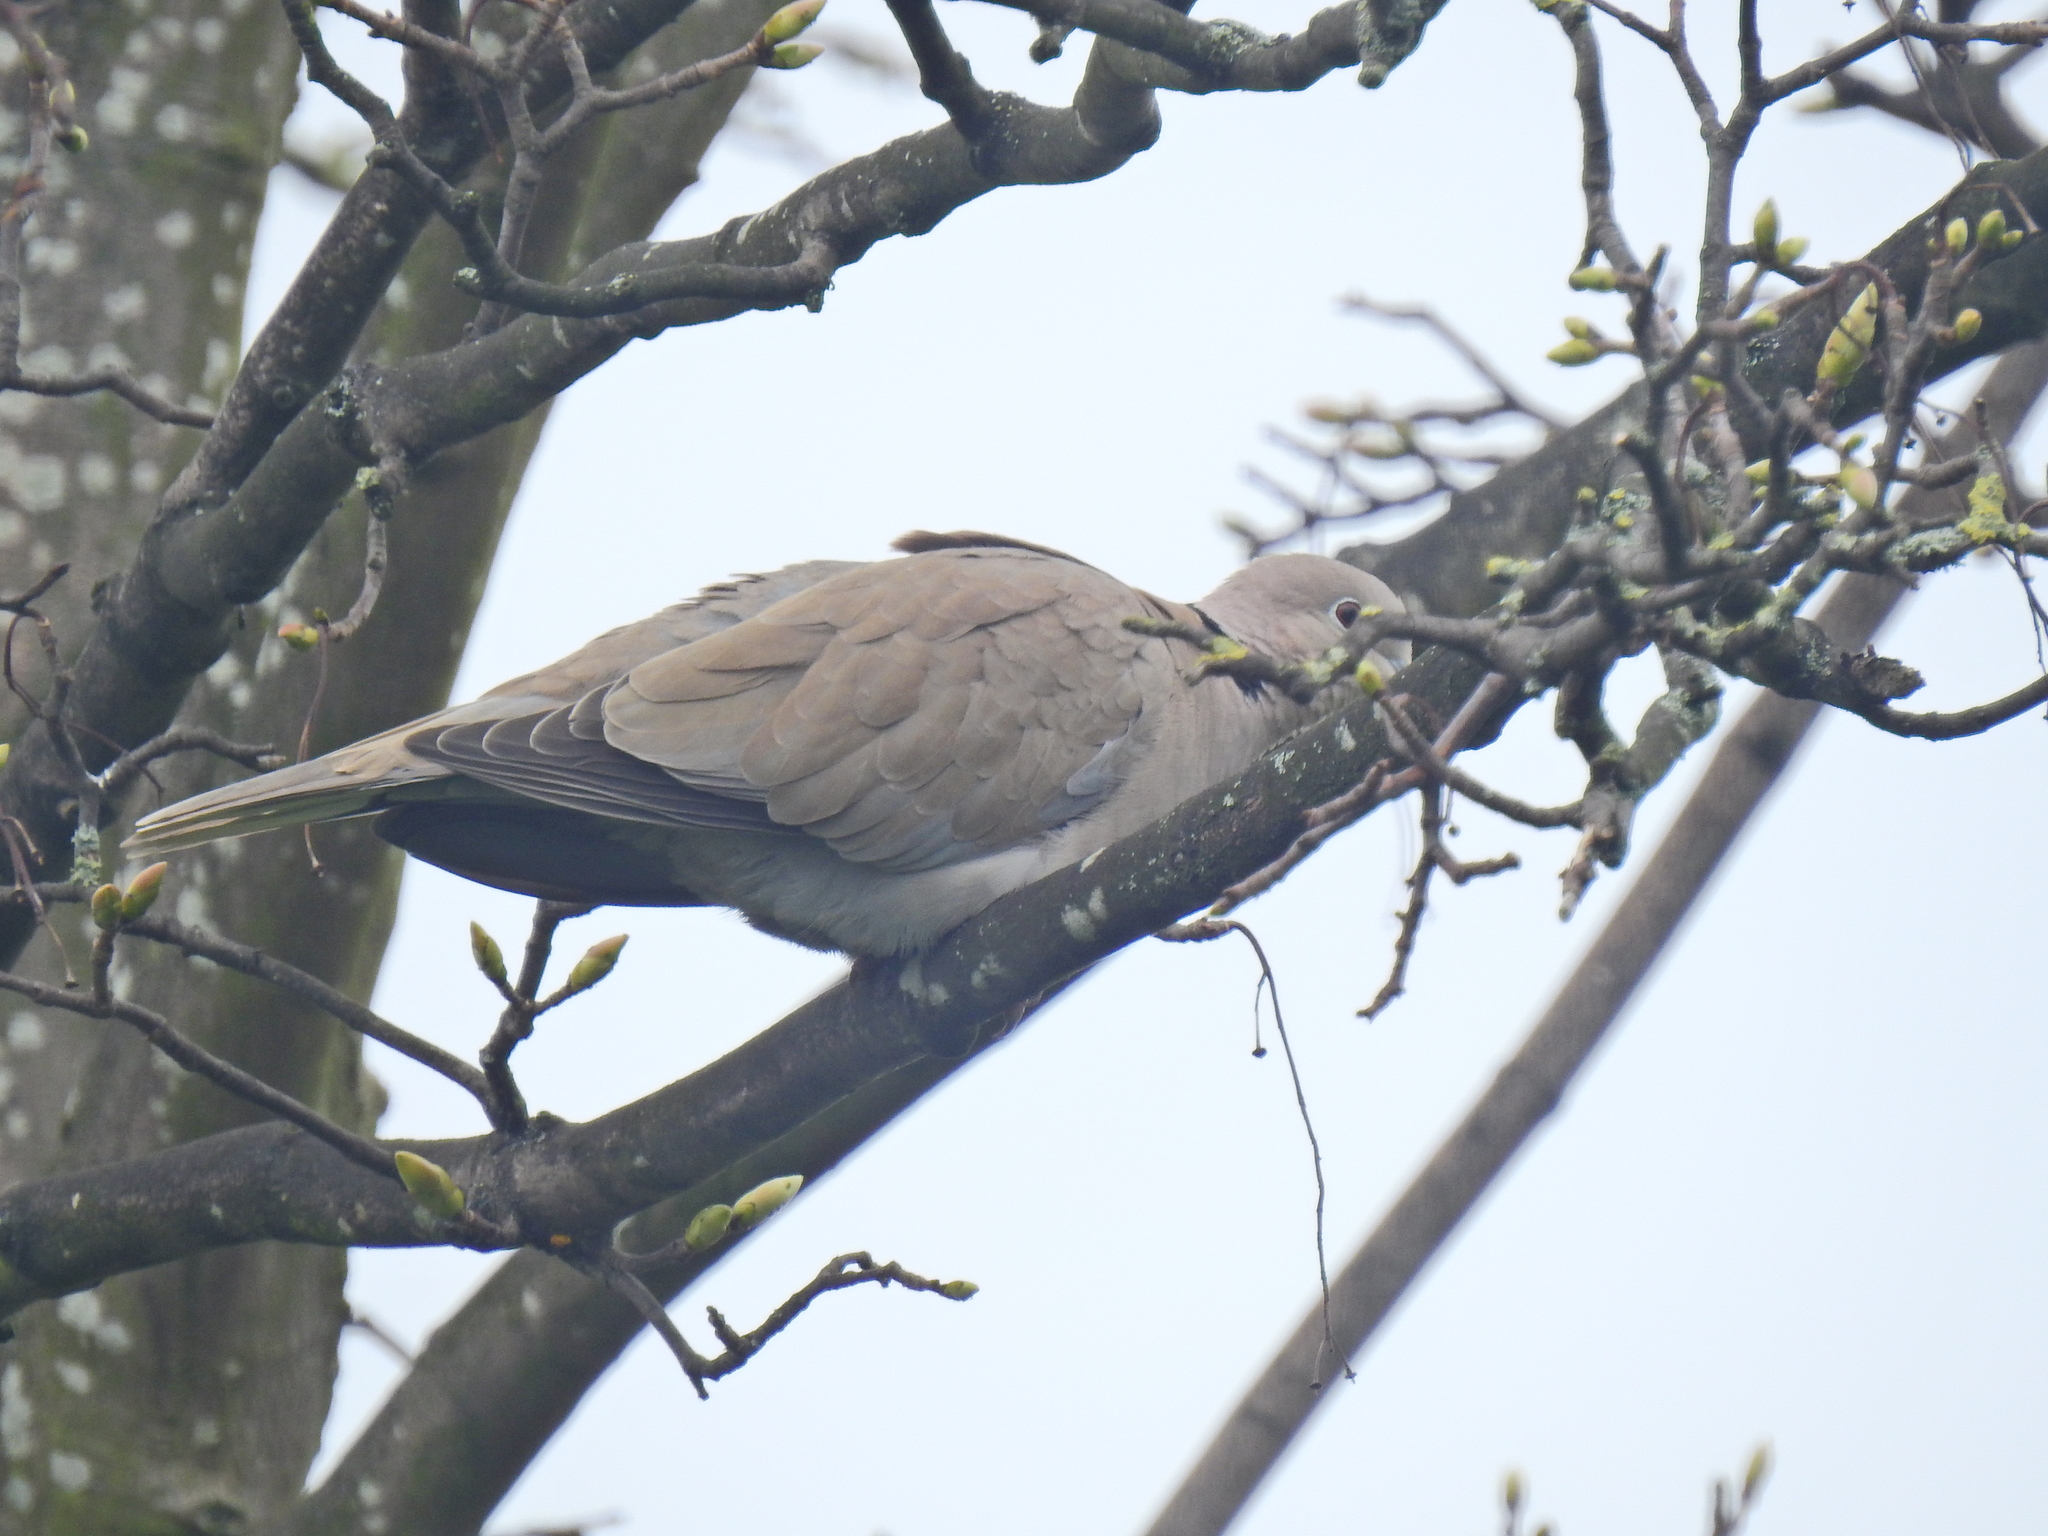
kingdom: Animalia
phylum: Chordata
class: Aves
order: Columbiformes
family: Columbidae
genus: Streptopelia
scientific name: Streptopelia decaocto
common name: Eurasian collared dove
